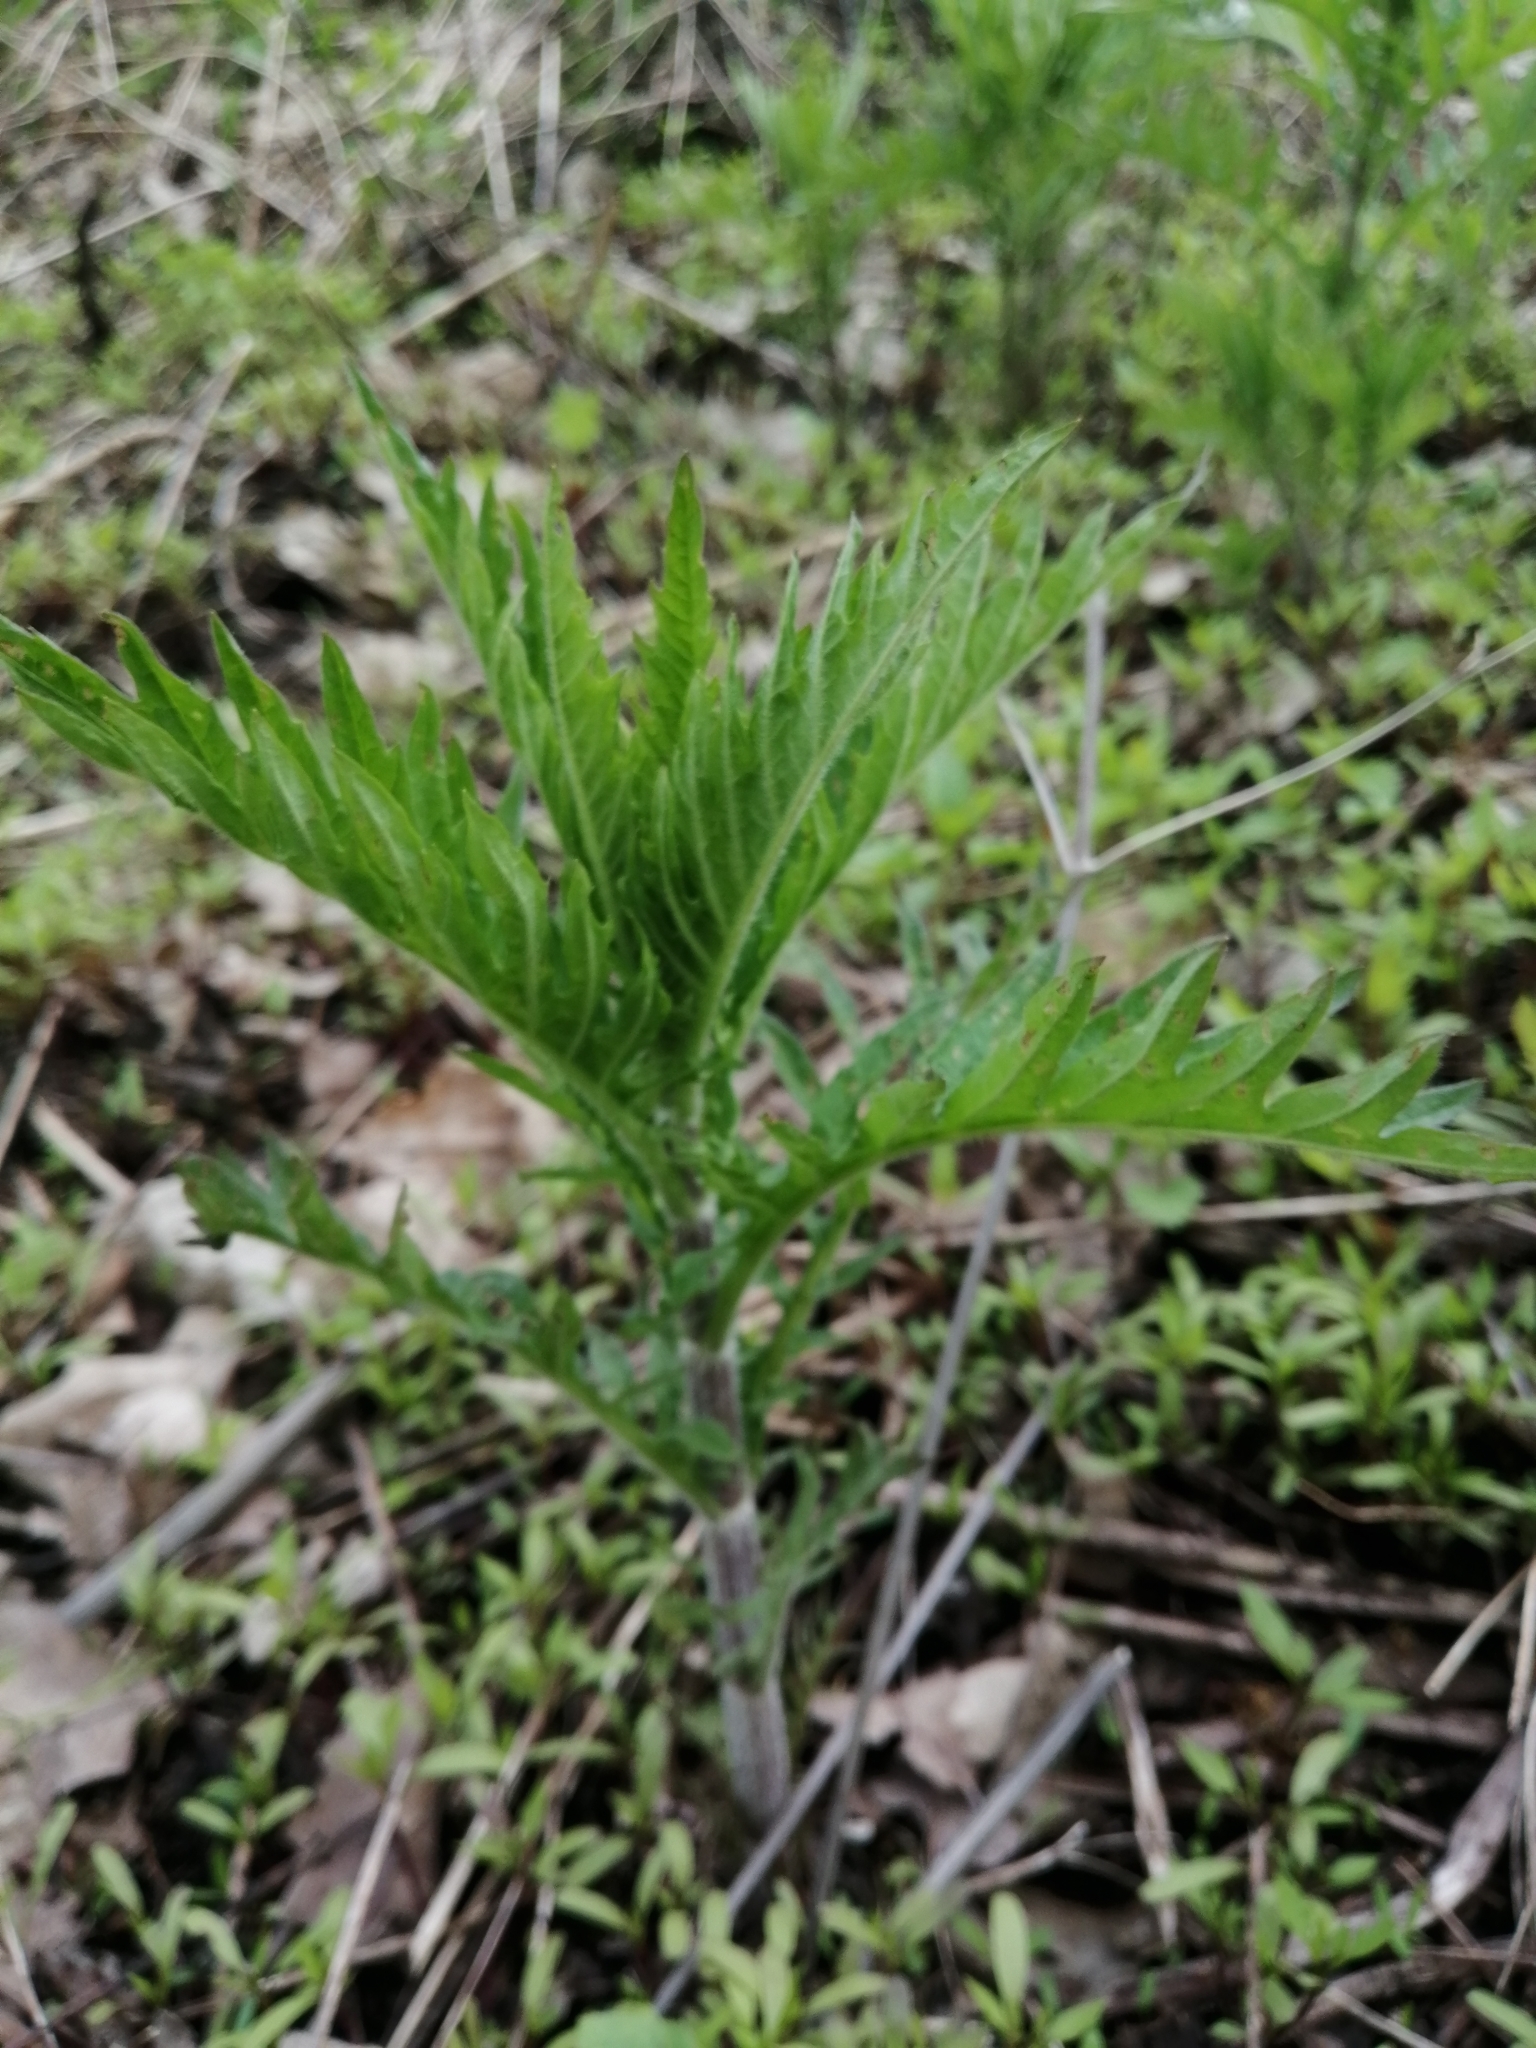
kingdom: Plantae
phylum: Tracheophyta
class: Magnoliopsida
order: Lamiales
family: Lamiaceae
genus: Lycopus
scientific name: Lycopus exaltatus
